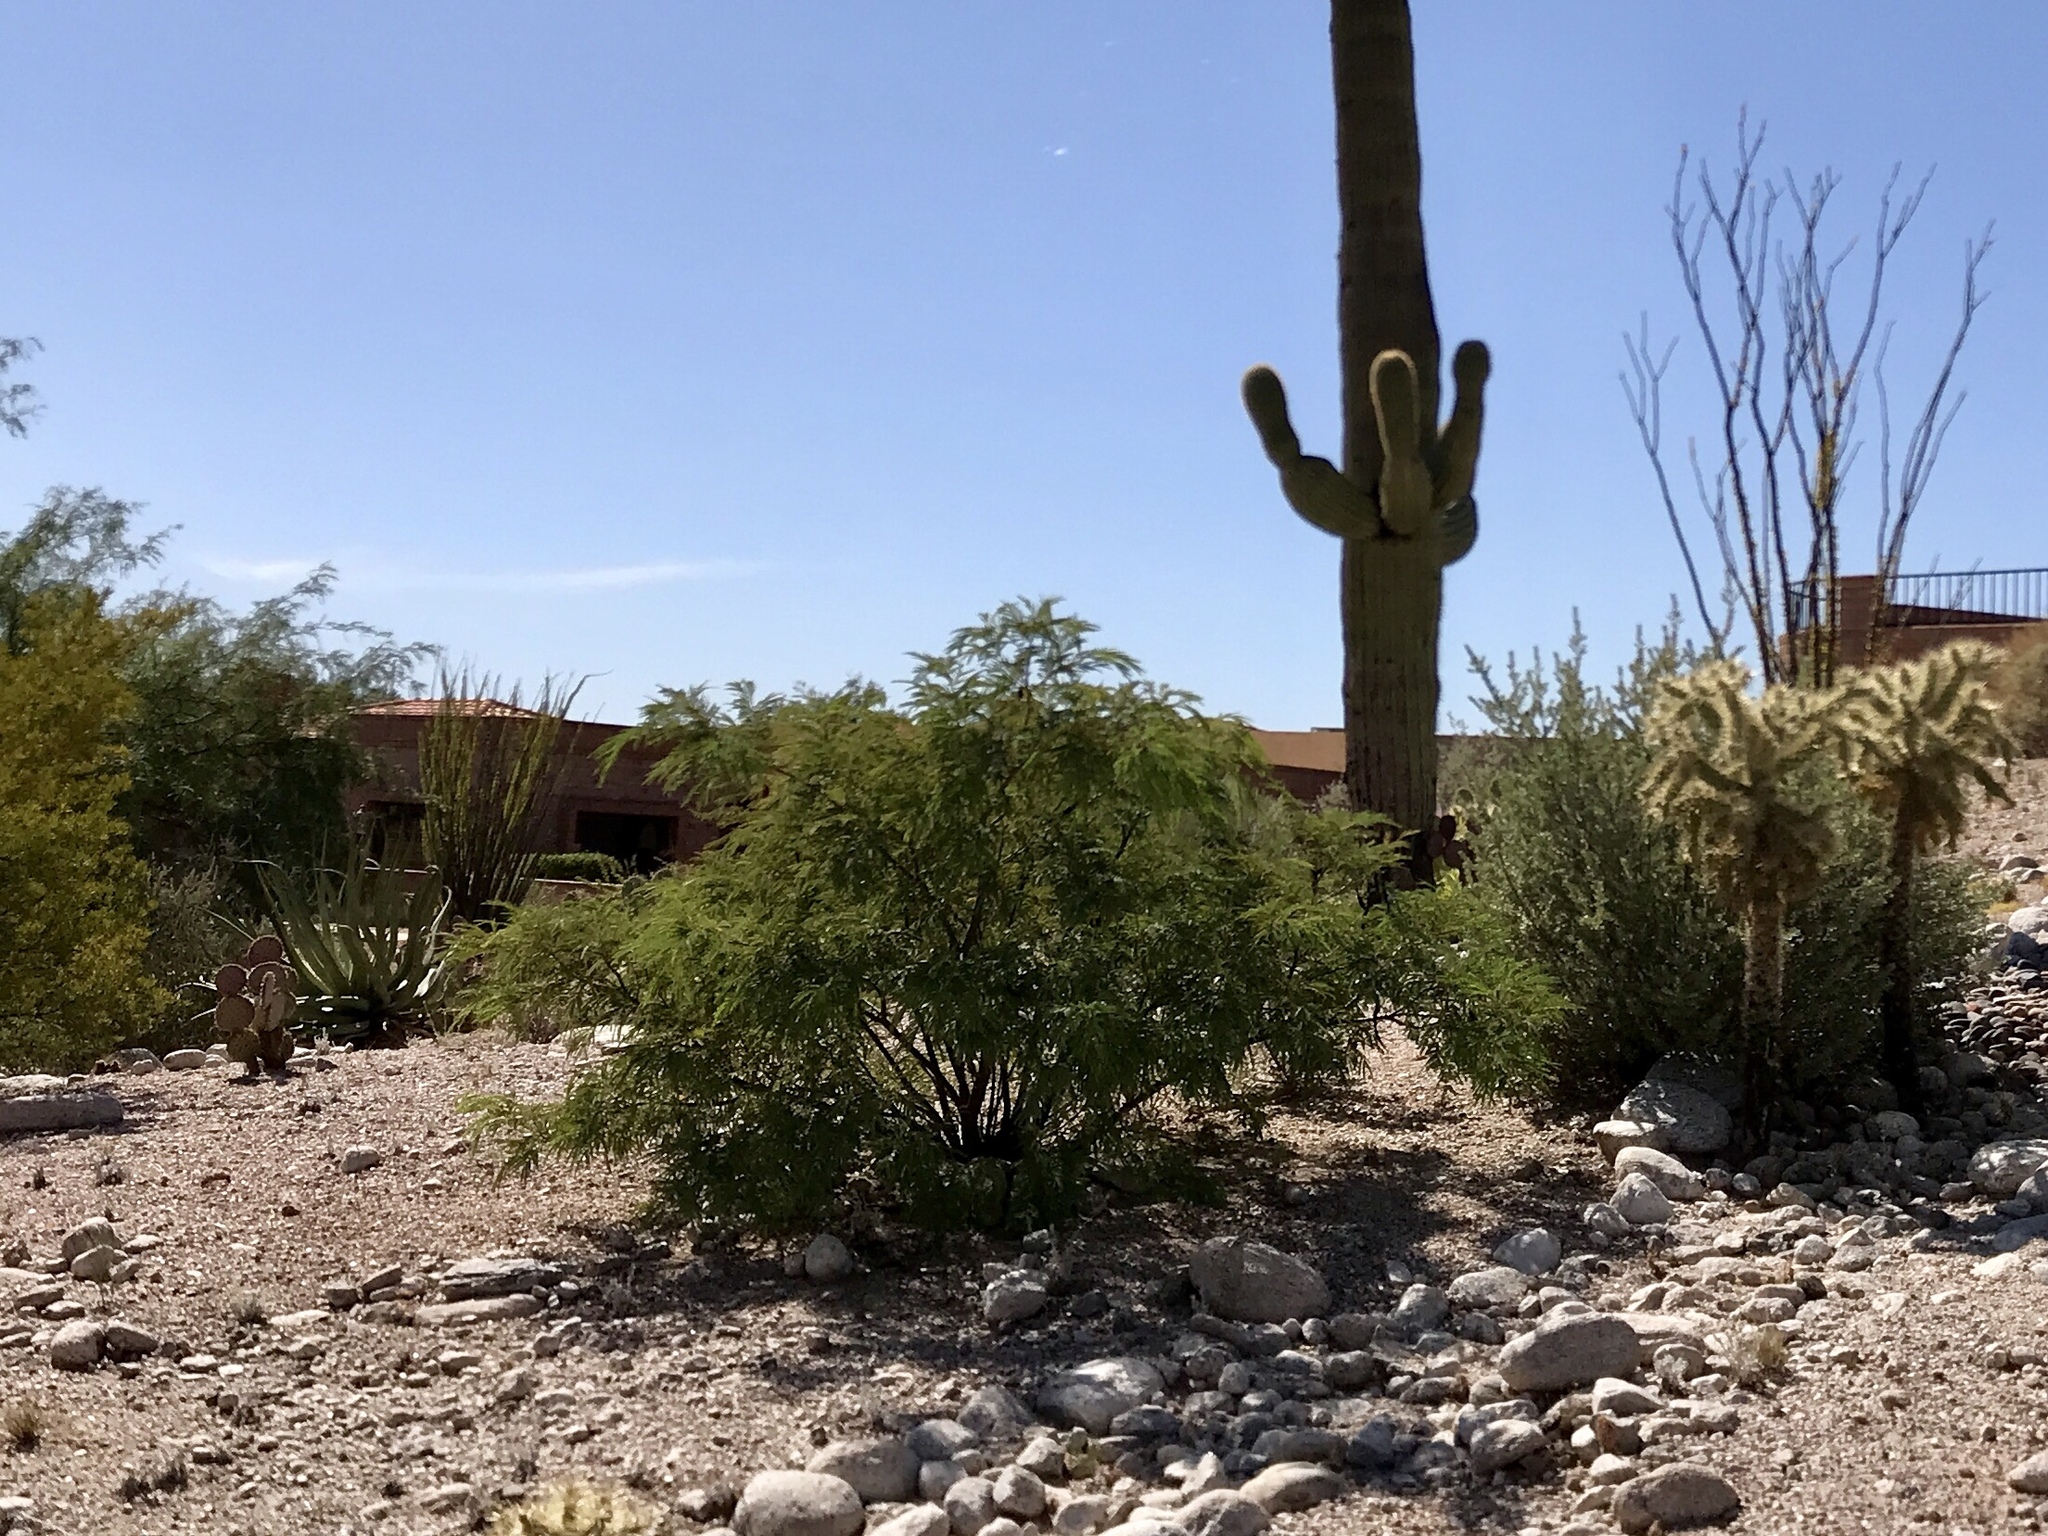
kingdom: Plantae
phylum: Tracheophyta
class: Magnoliopsida
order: Zygophyllales
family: Zygophyllaceae
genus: Larrea
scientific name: Larrea tridentata
